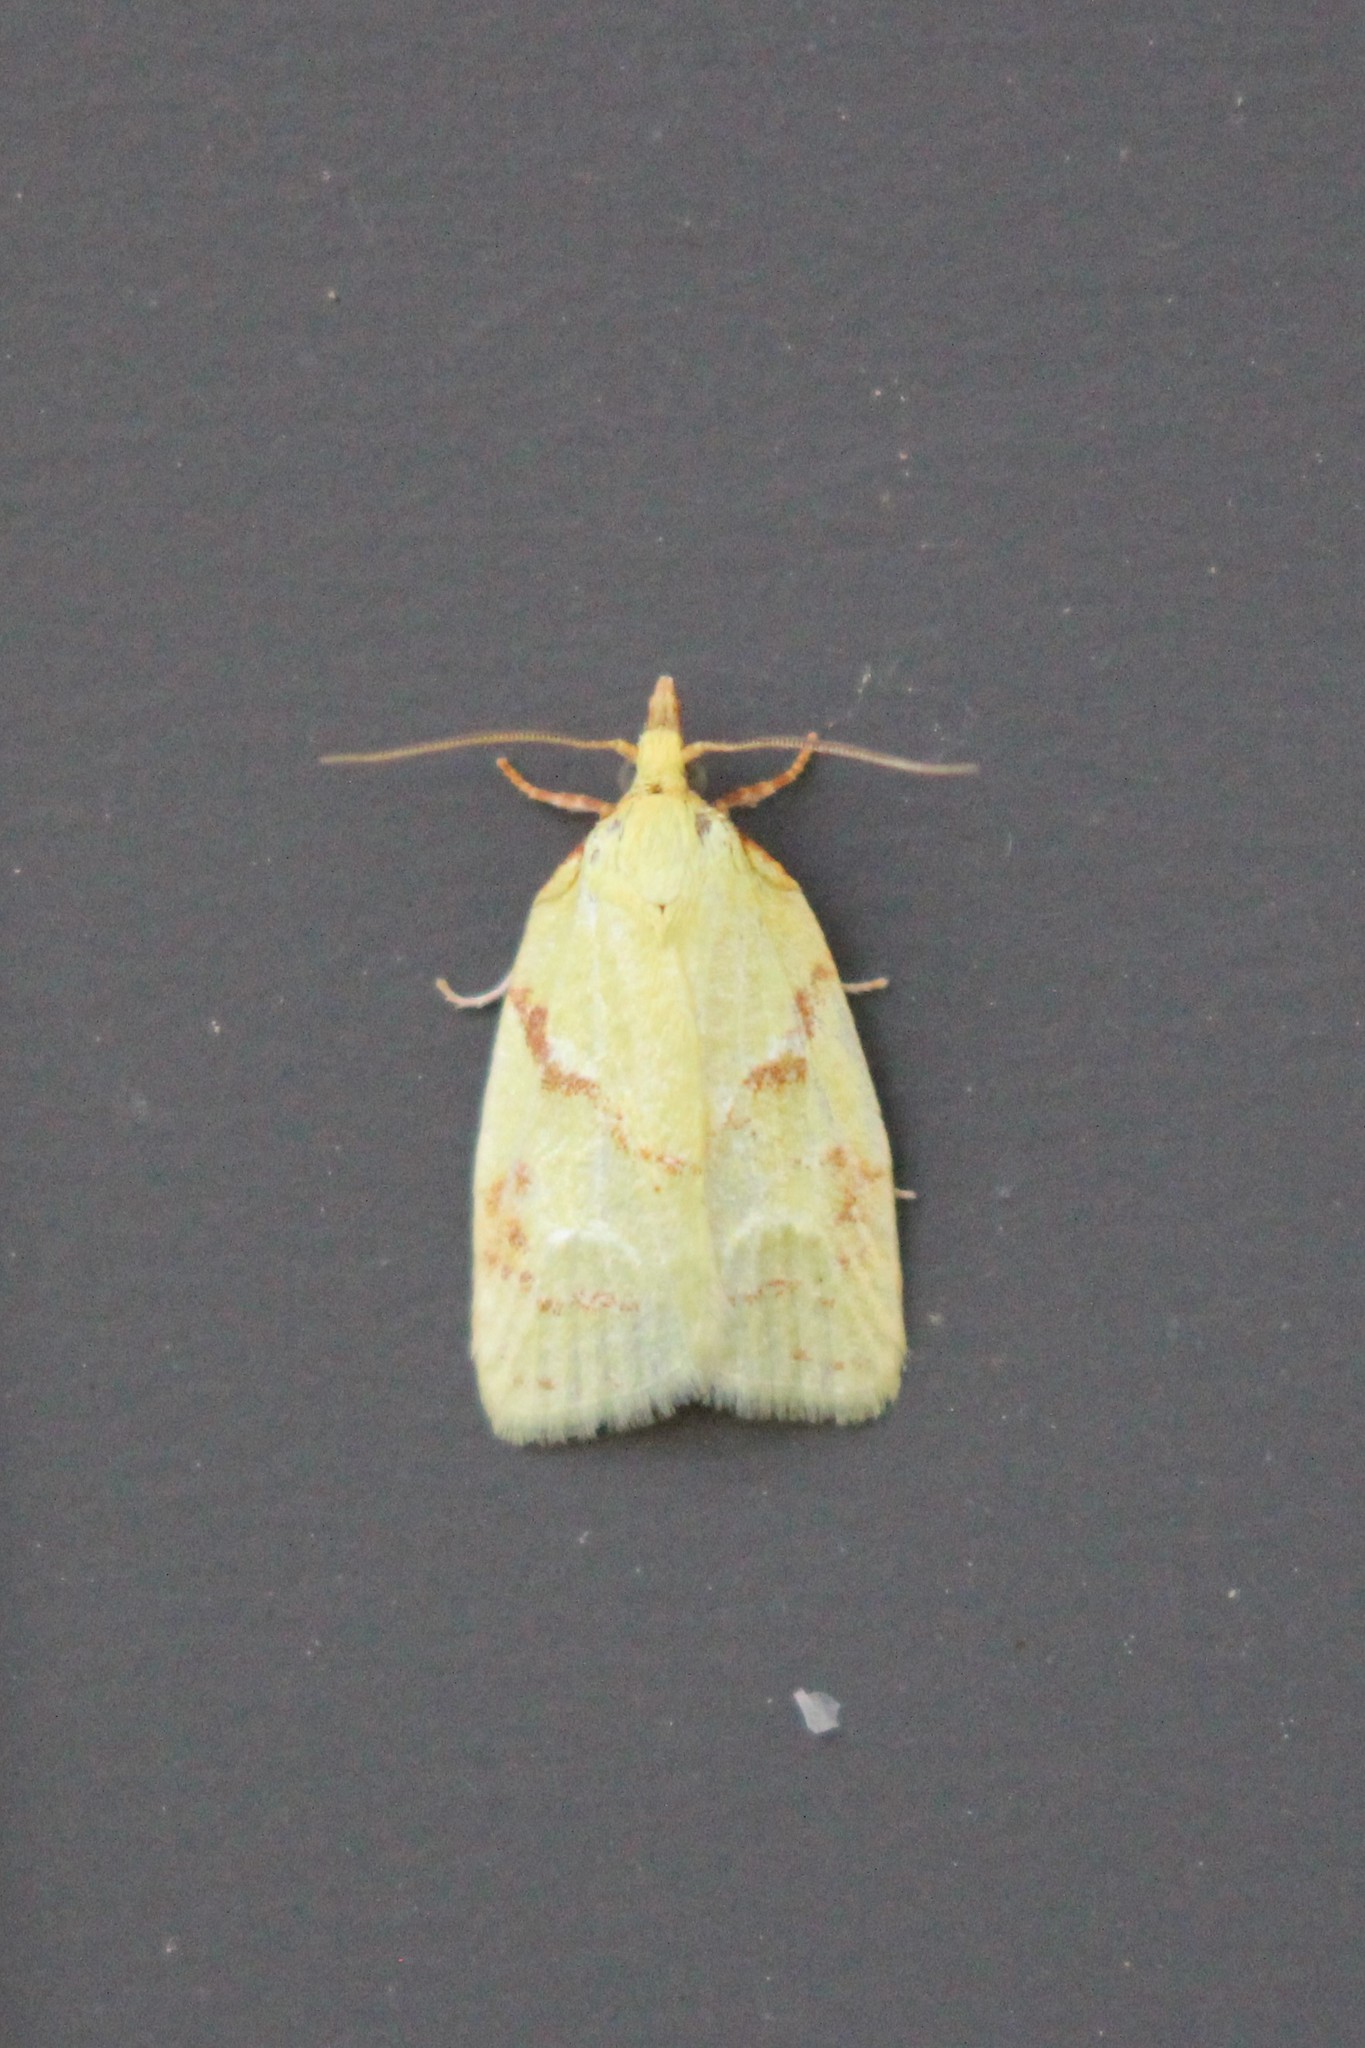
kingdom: Animalia
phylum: Arthropoda
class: Insecta
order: Lepidoptera
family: Tortricidae
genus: Cenopis
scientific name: Cenopis pettitana
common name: Maple-basswood leafroller moth
